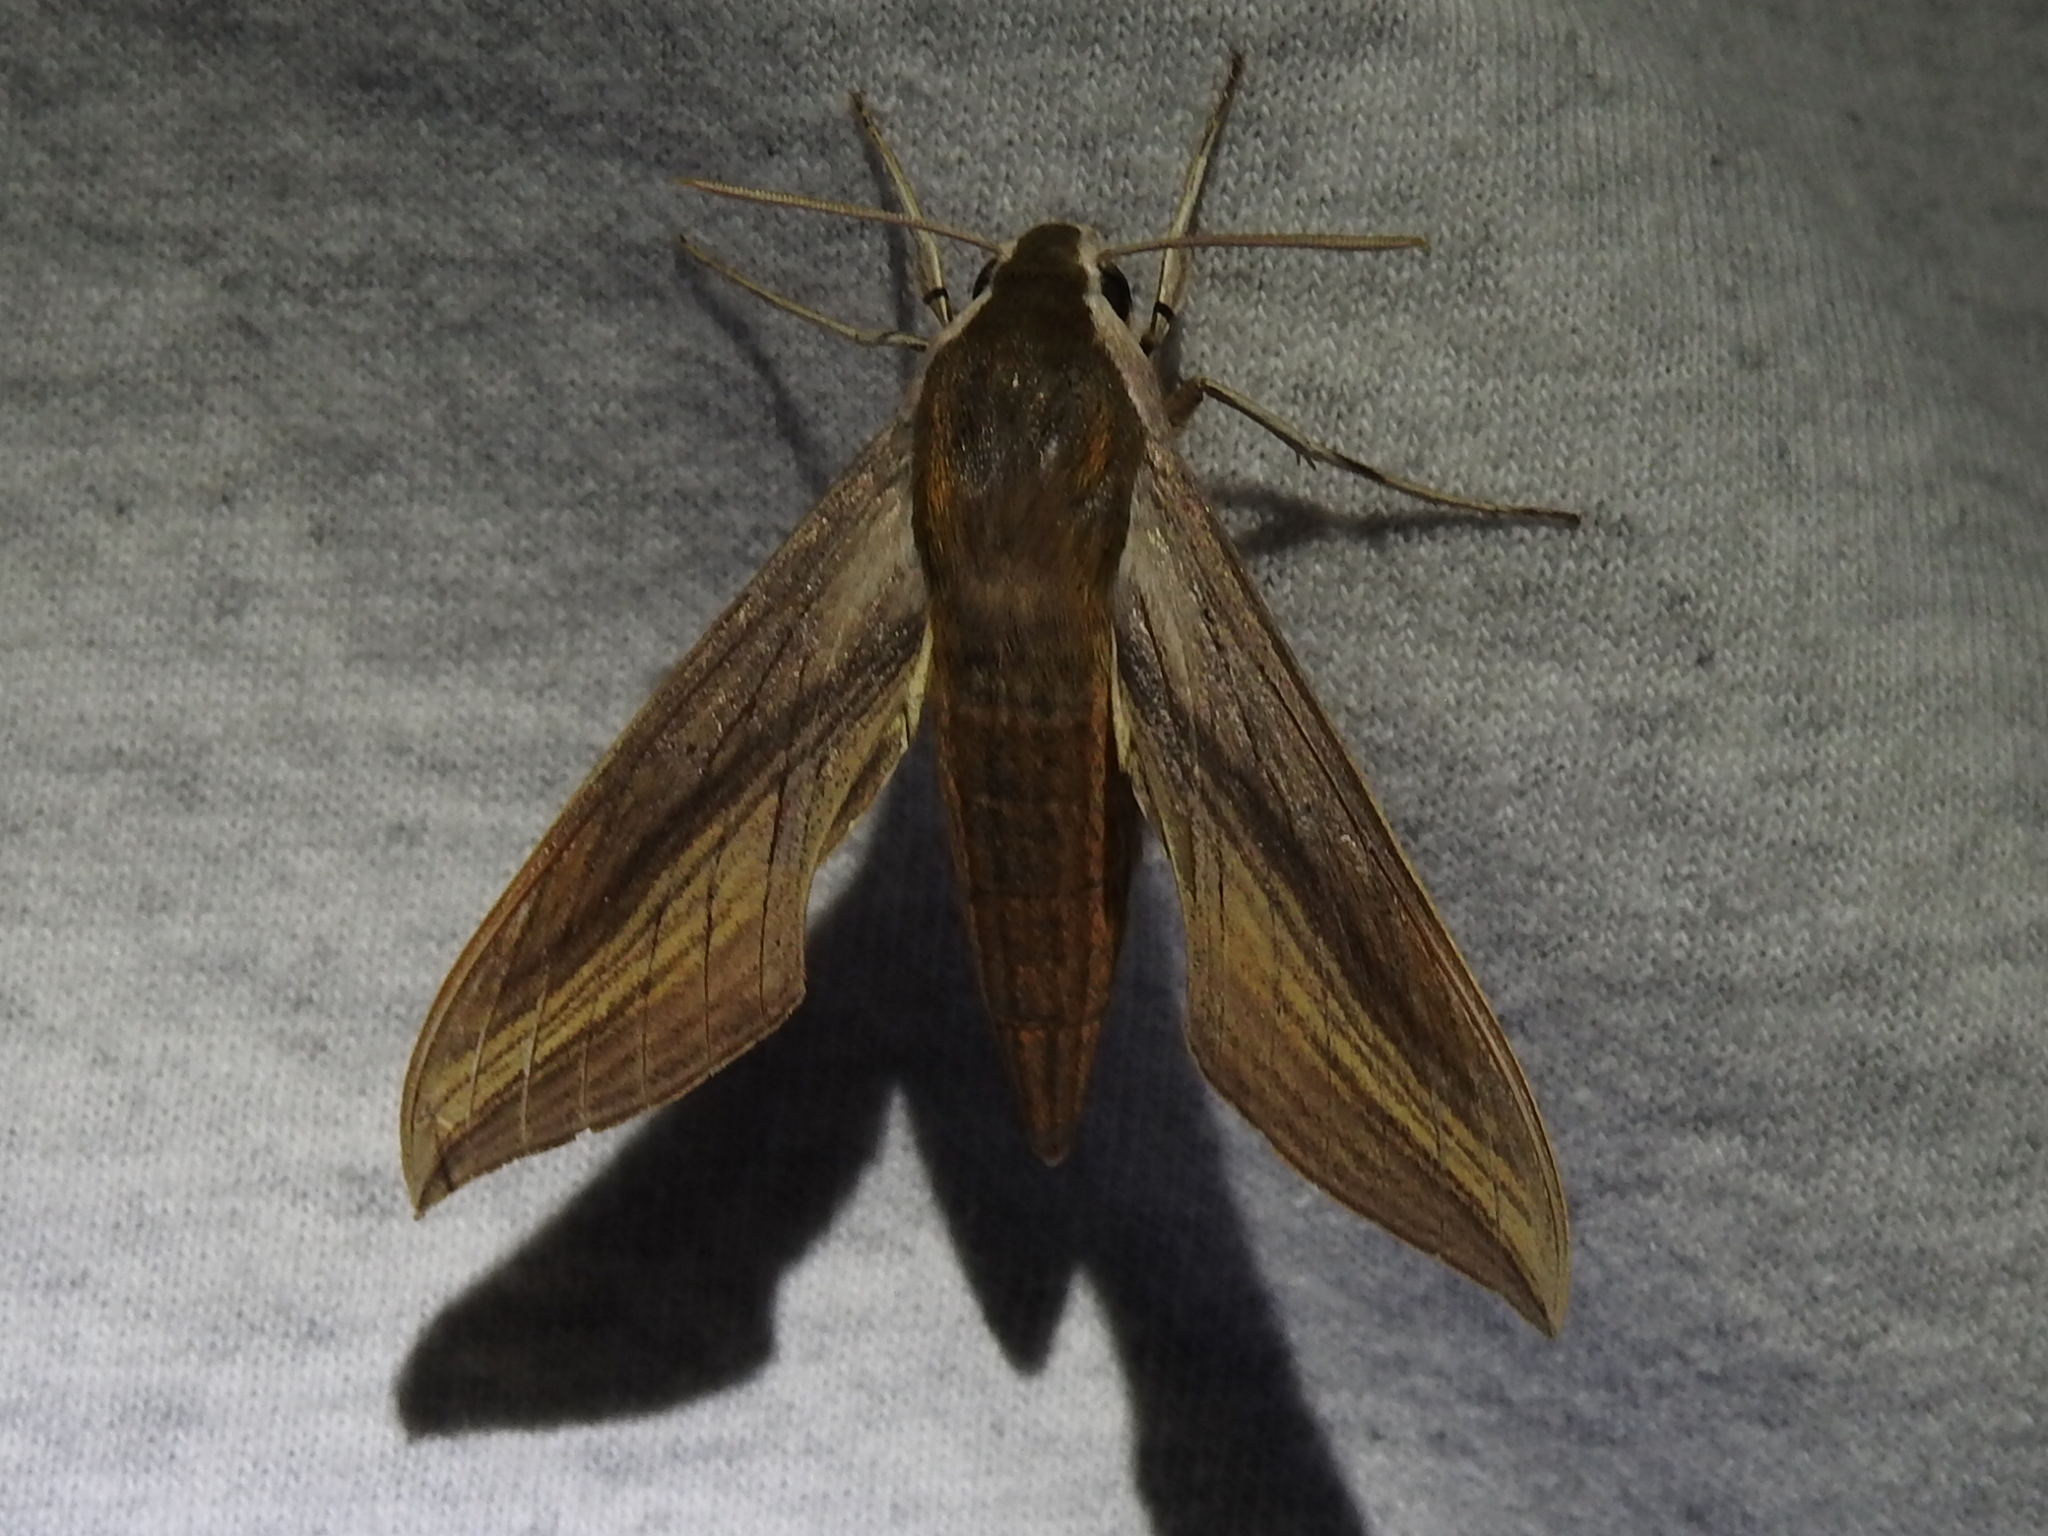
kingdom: Animalia
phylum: Arthropoda
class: Insecta
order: Lepidoptera
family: Sphingidae
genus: Xylophanes
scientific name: Xylophanes tersa
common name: Tersa sphinx
